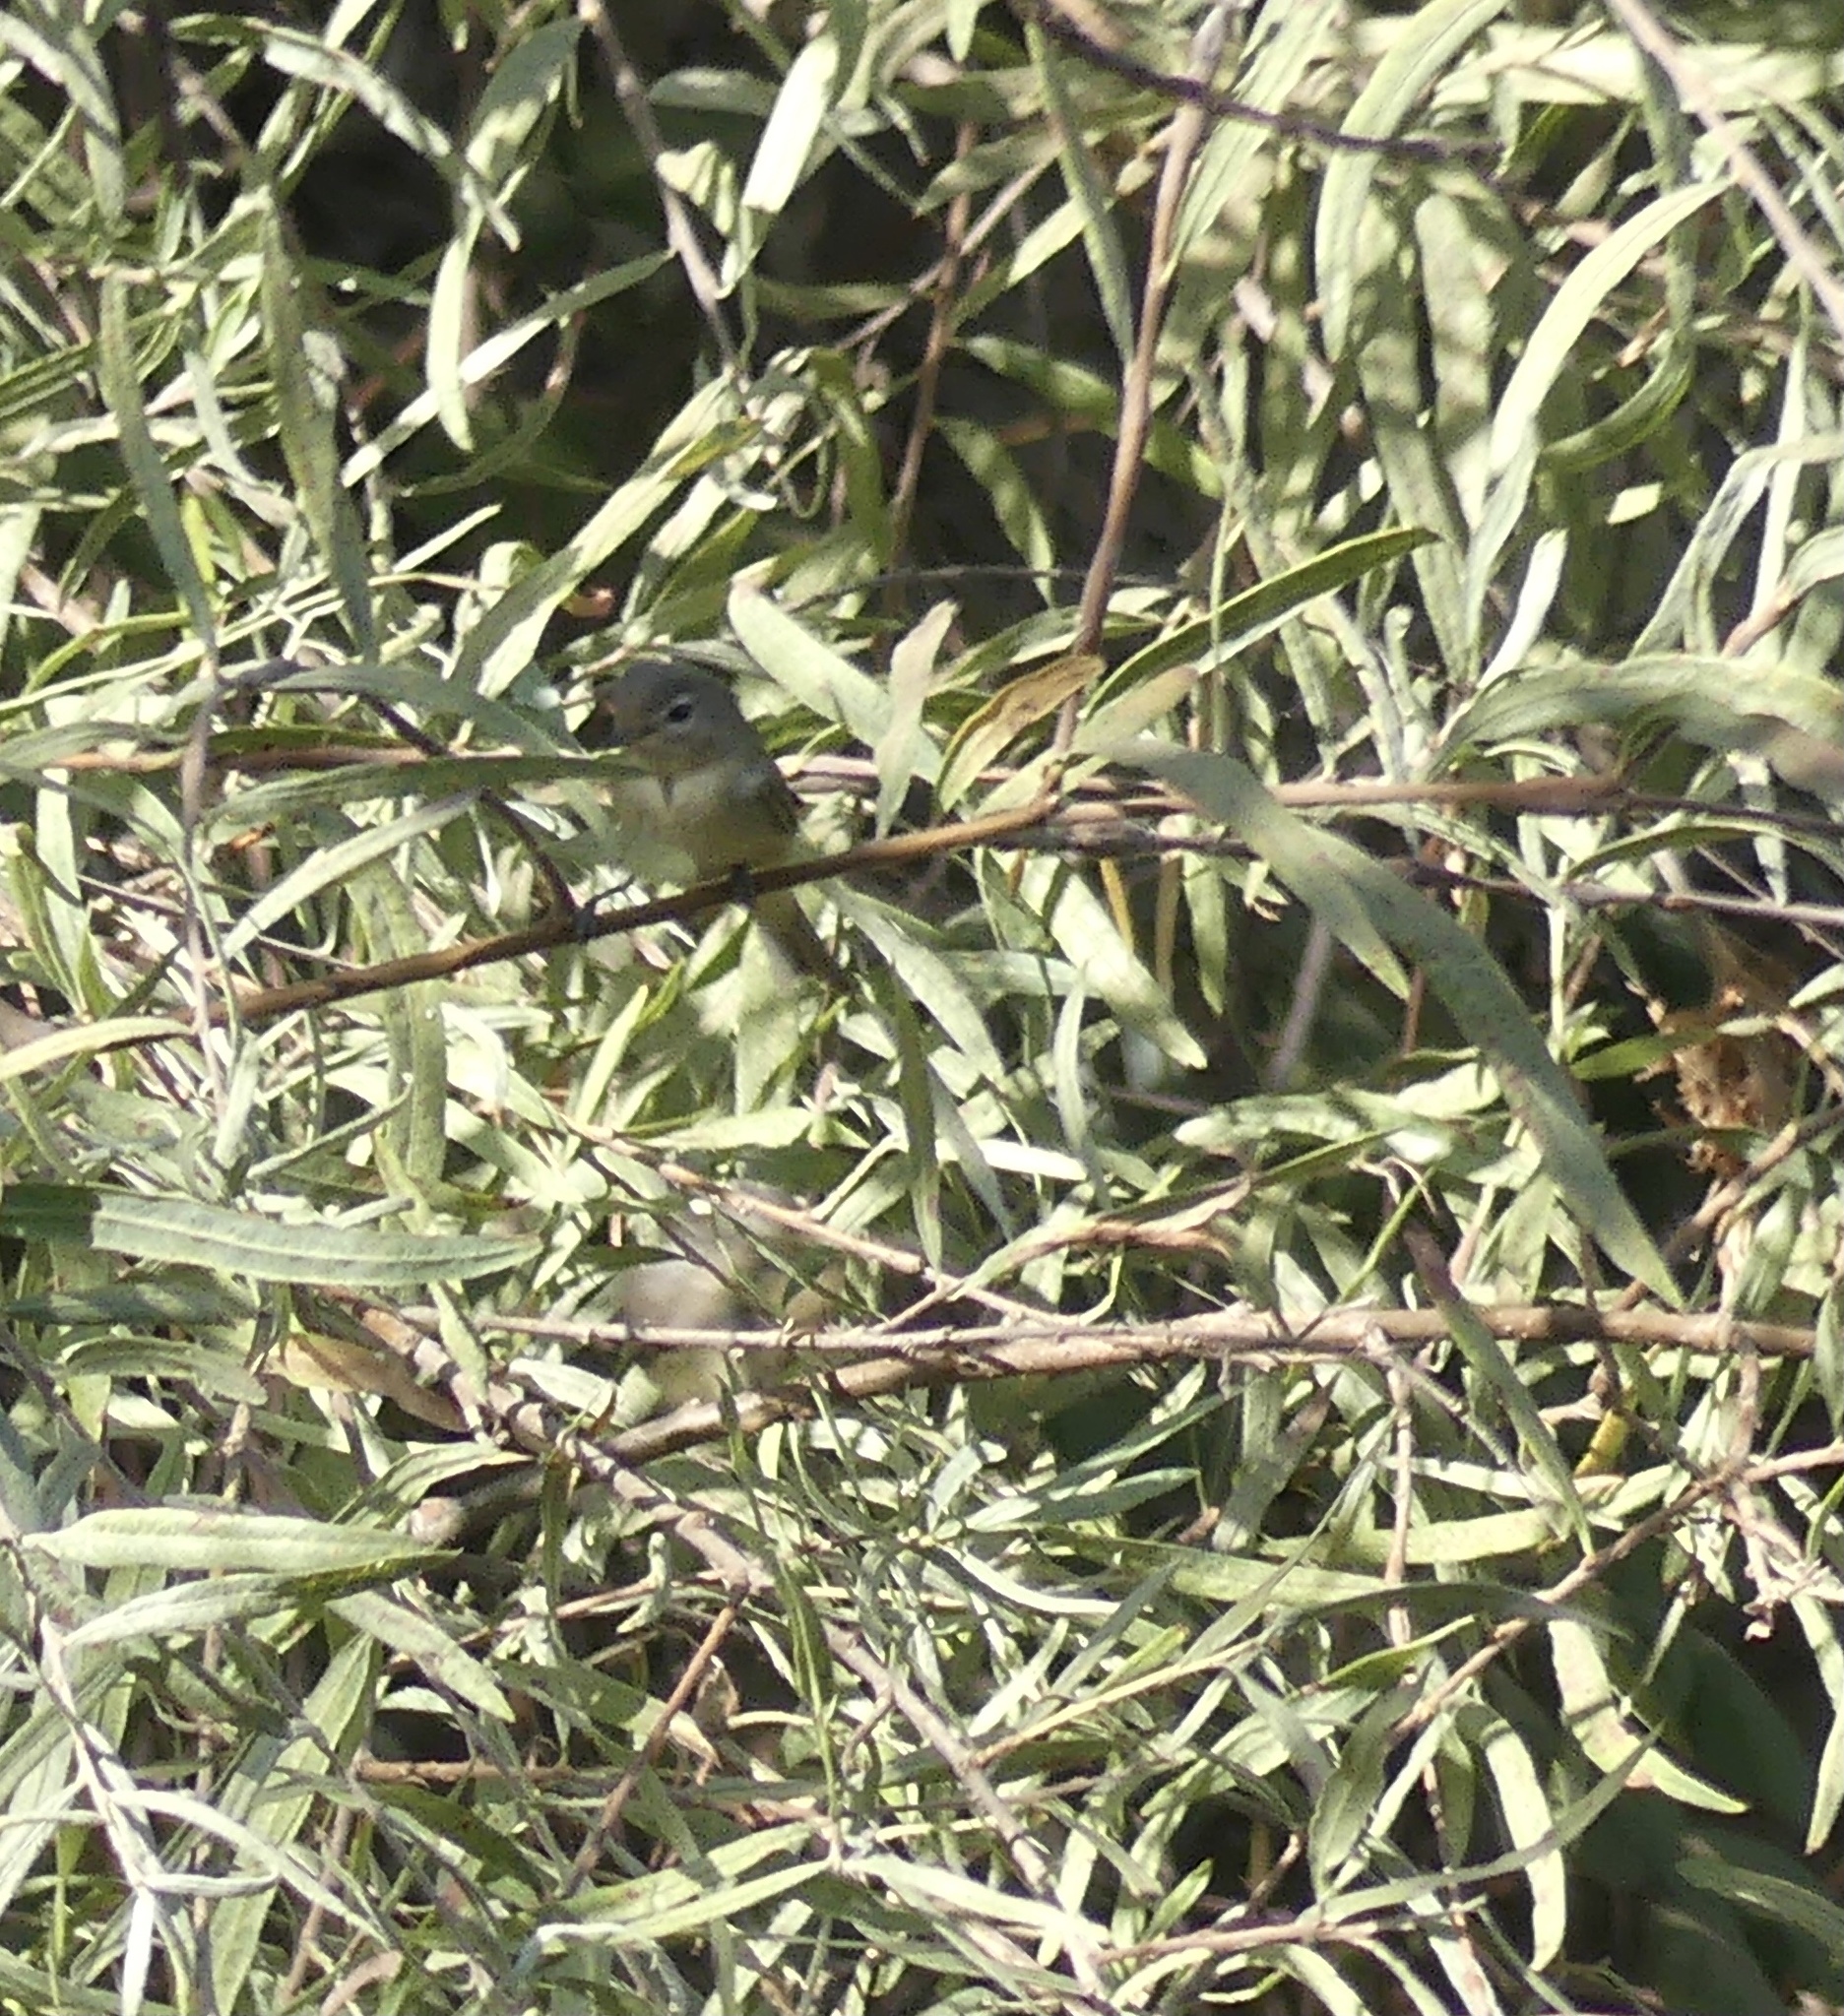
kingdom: Animalia
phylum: Chordata
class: Aves
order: Passeriformes
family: Vireonidae
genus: Vireo
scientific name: Vireo gilvus
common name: Warbling vireo
